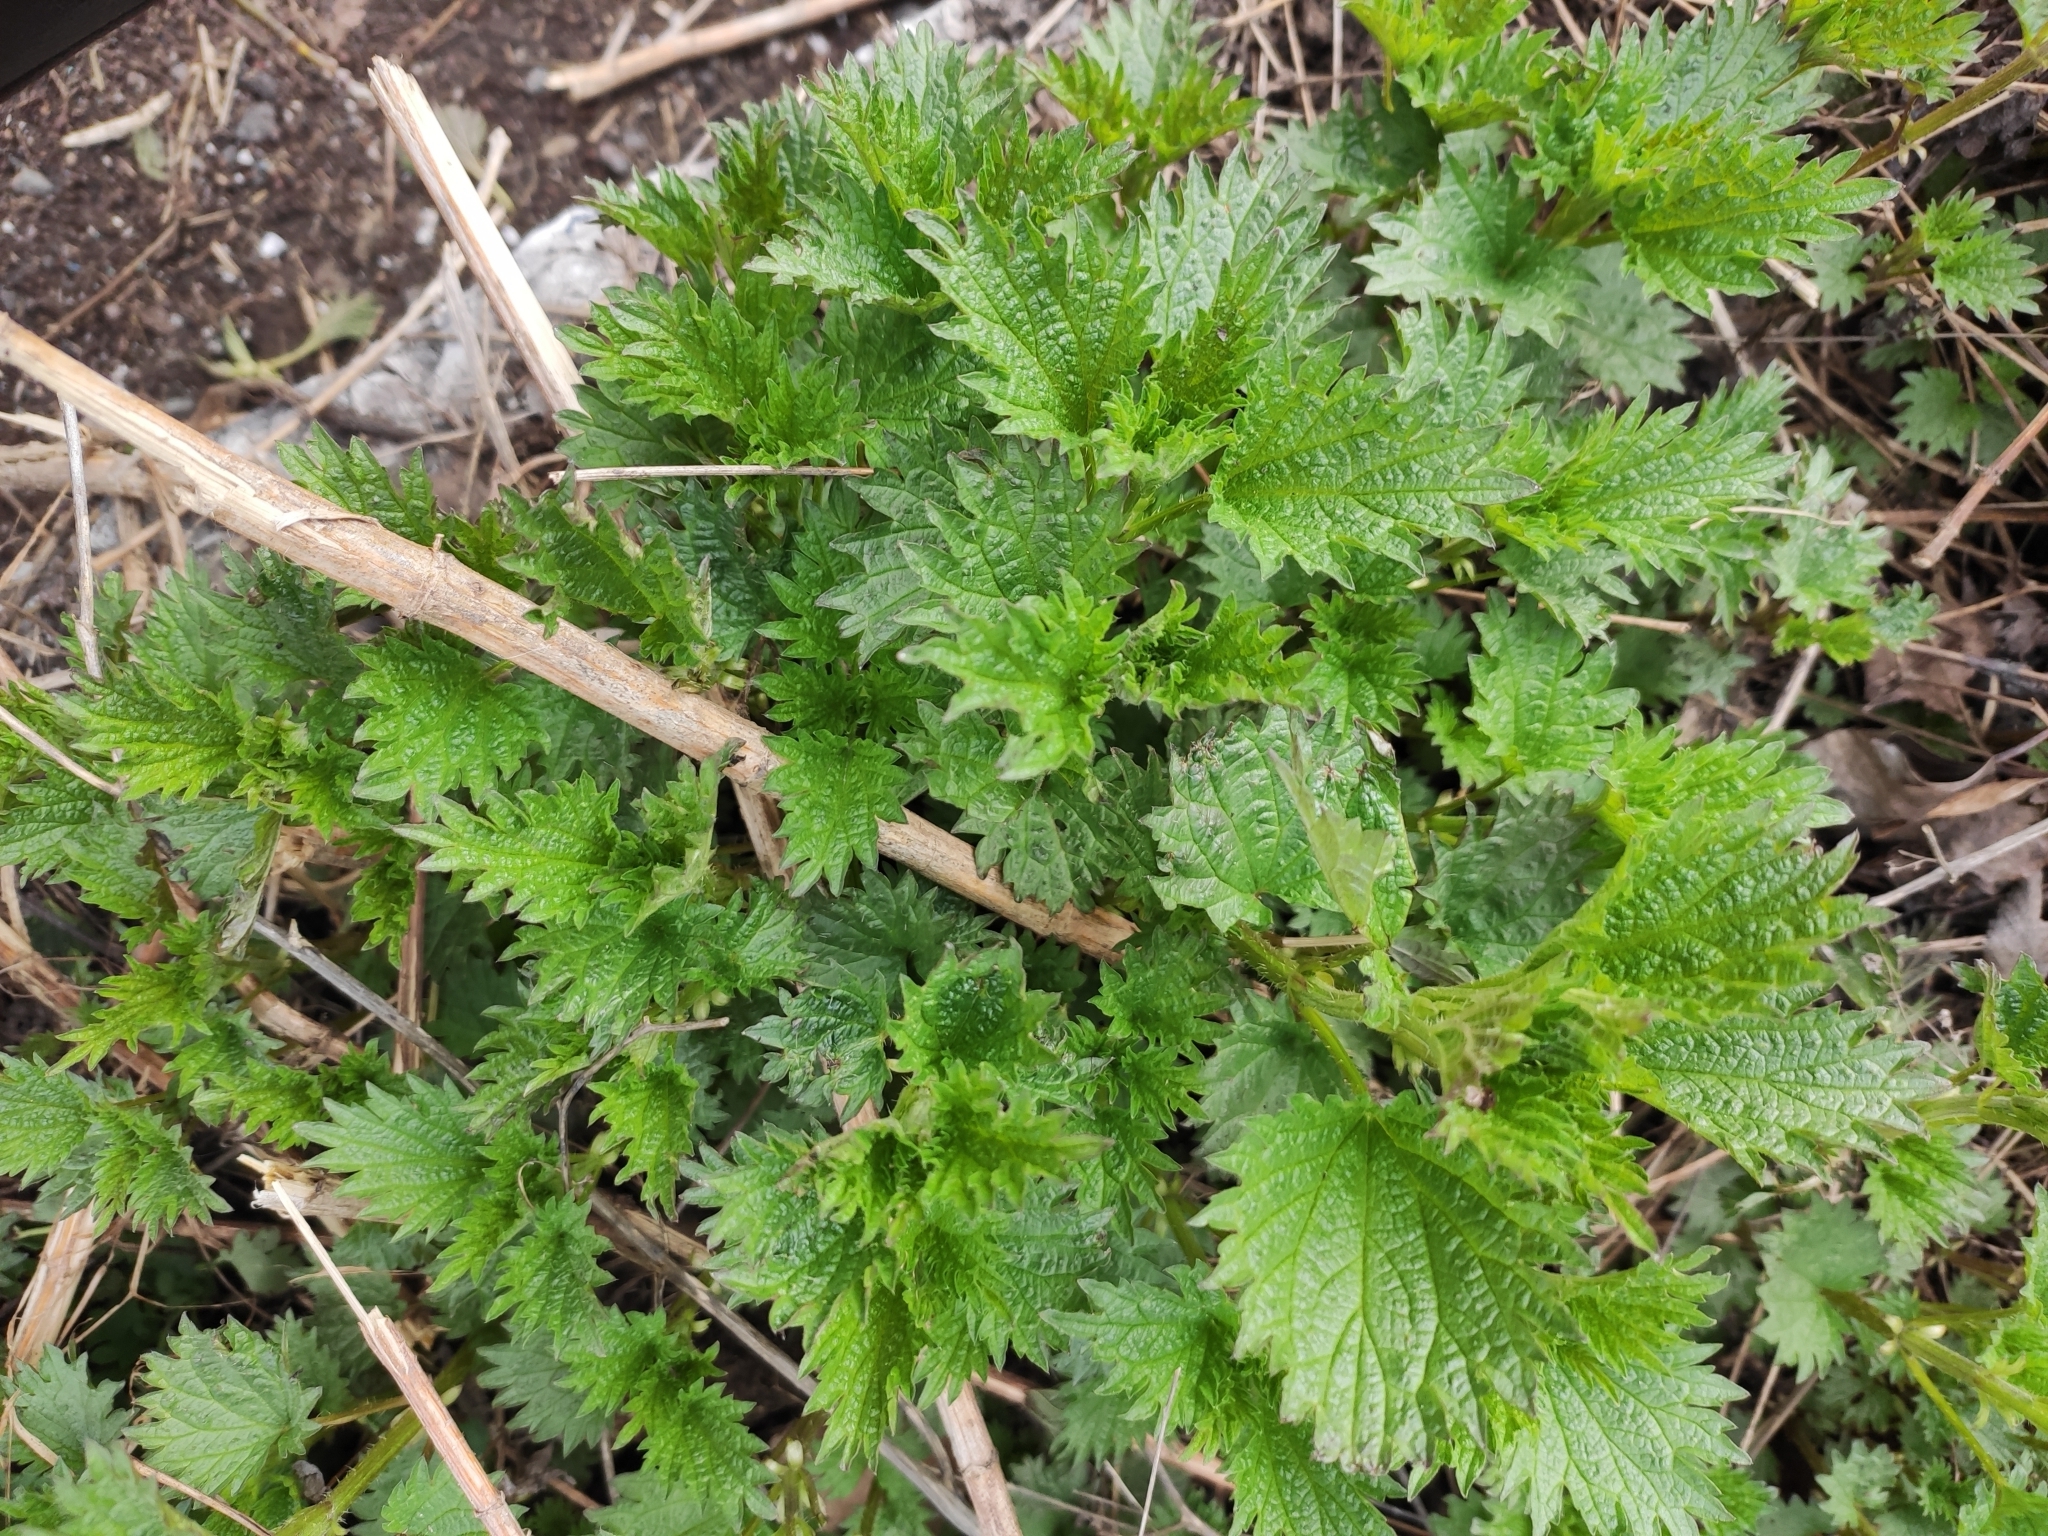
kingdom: Plantae
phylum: Tracheophyta
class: Magnoliopsida
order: Rosales
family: Urticaceae
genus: Urtica
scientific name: Urtica dioica
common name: Common nettle
